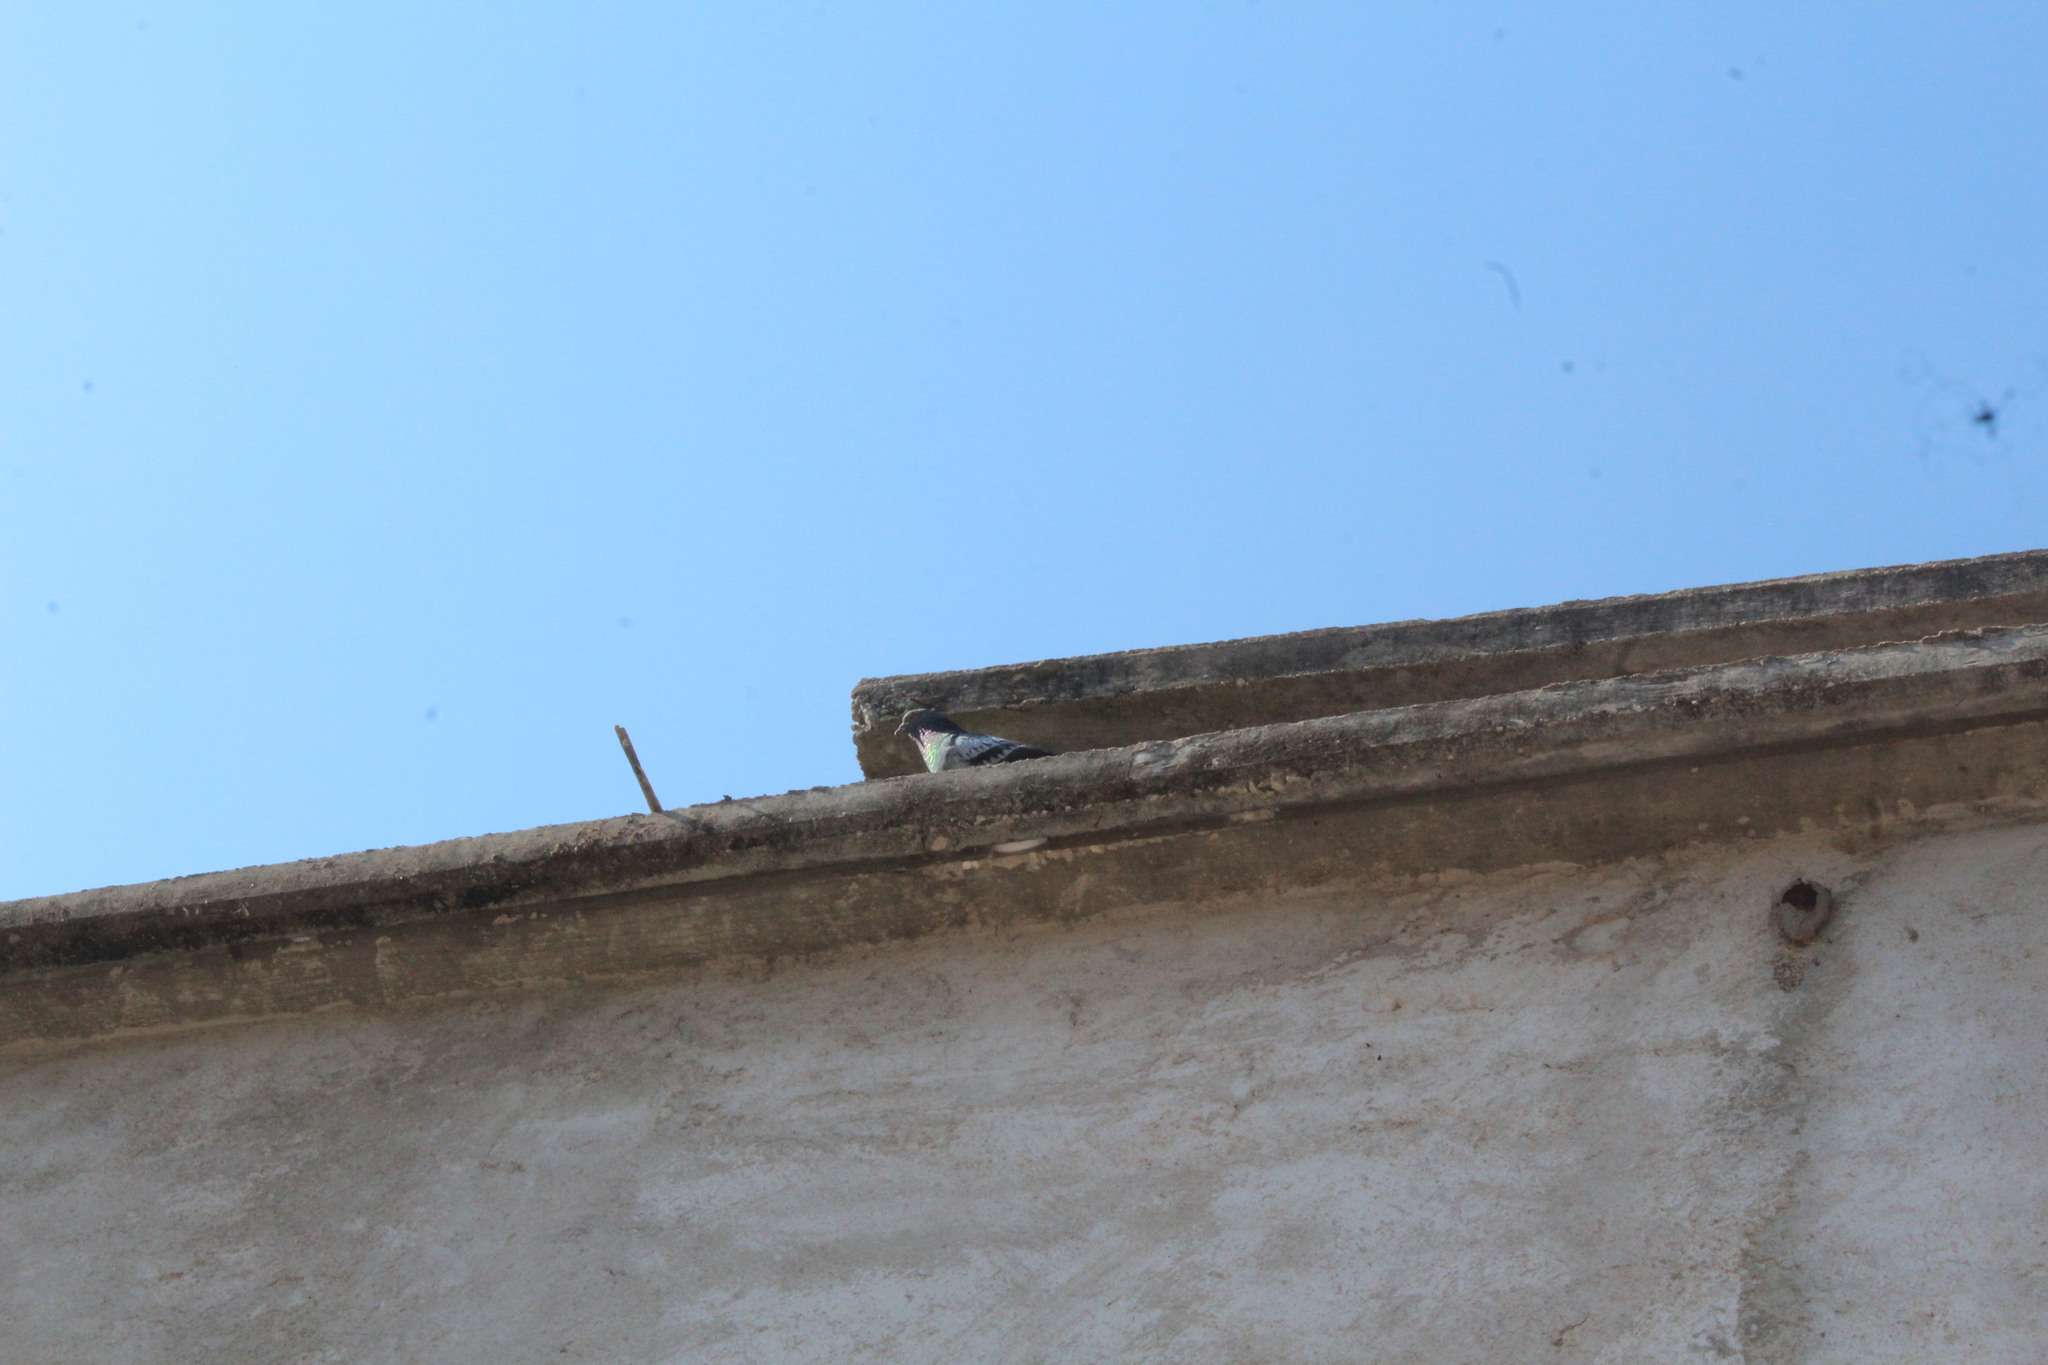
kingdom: Animalia
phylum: Chordata
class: Aves
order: Columbiformes
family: Columbidae
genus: Columba
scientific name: Columba livia
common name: Rock pigeon
